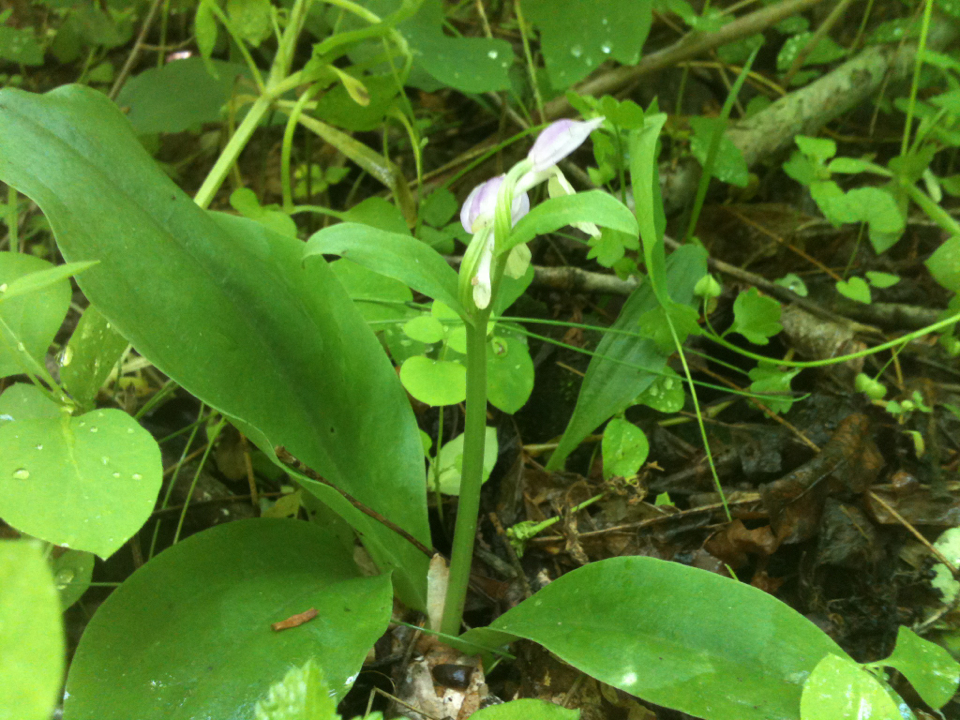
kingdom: Plantae
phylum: Tracheophyta
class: Liliopsida
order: Asparagales
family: Orchidaceae
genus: Galearis
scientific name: Galearis spectabilis
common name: Purple-hooded orchis
